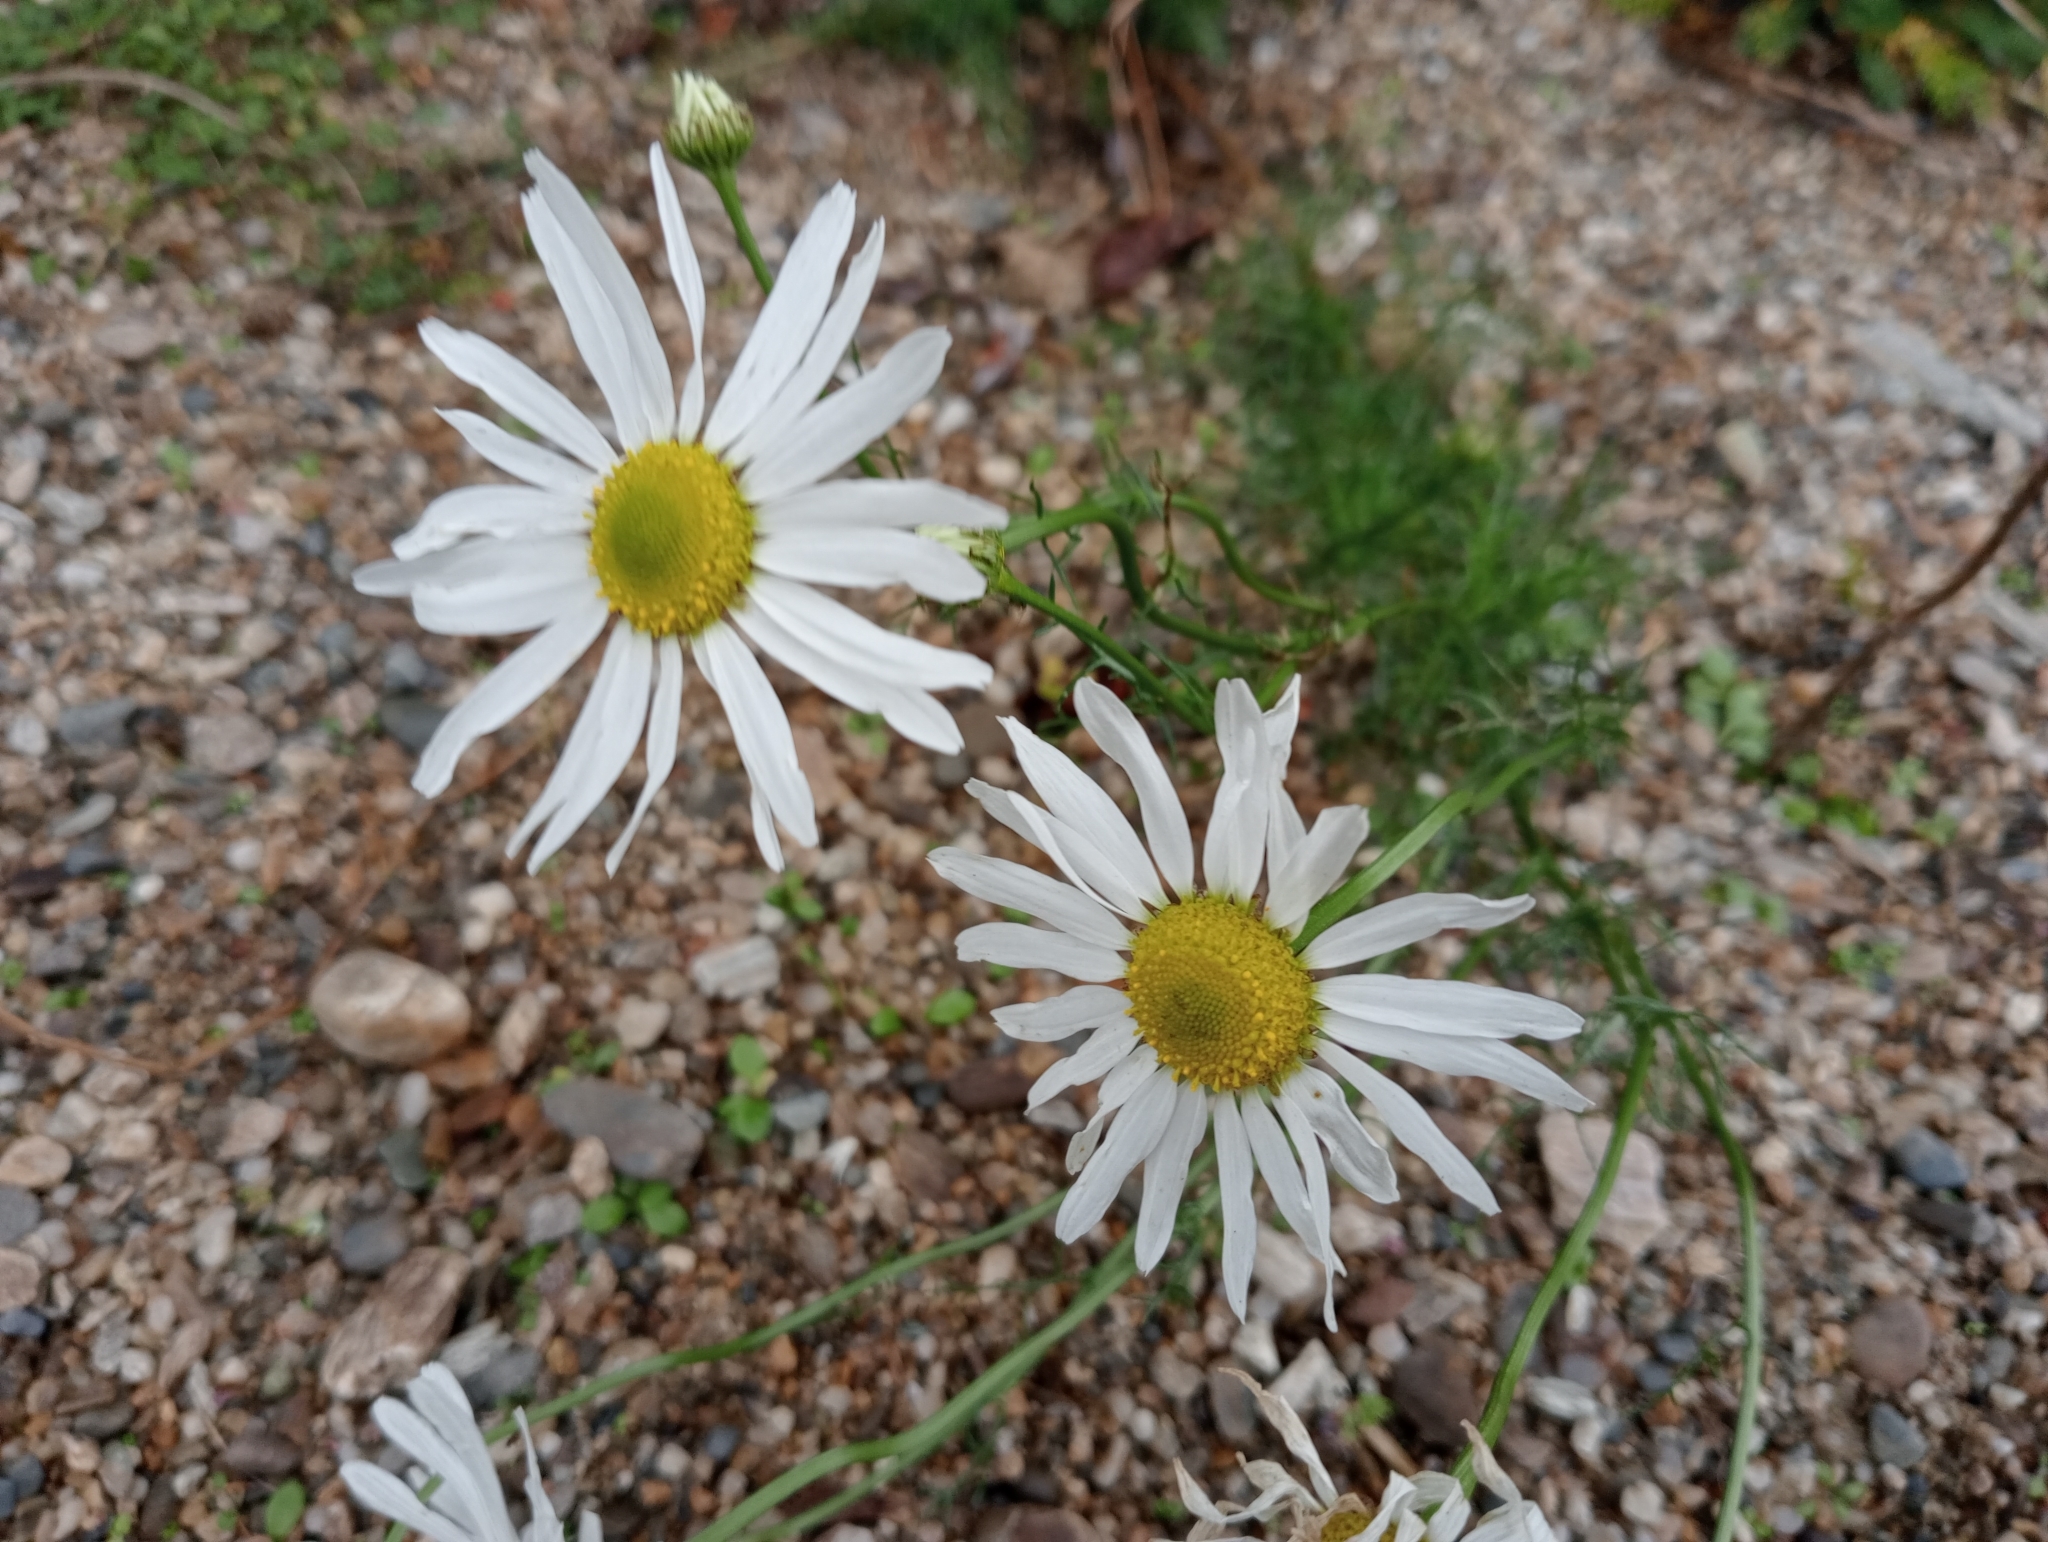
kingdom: Plantae
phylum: Tracheophyta
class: Magnoliopsida
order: Asterales
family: Asteraceae
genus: Tripleurospermum
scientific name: Tripleurospermum inodorum
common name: Scentless mayweed
